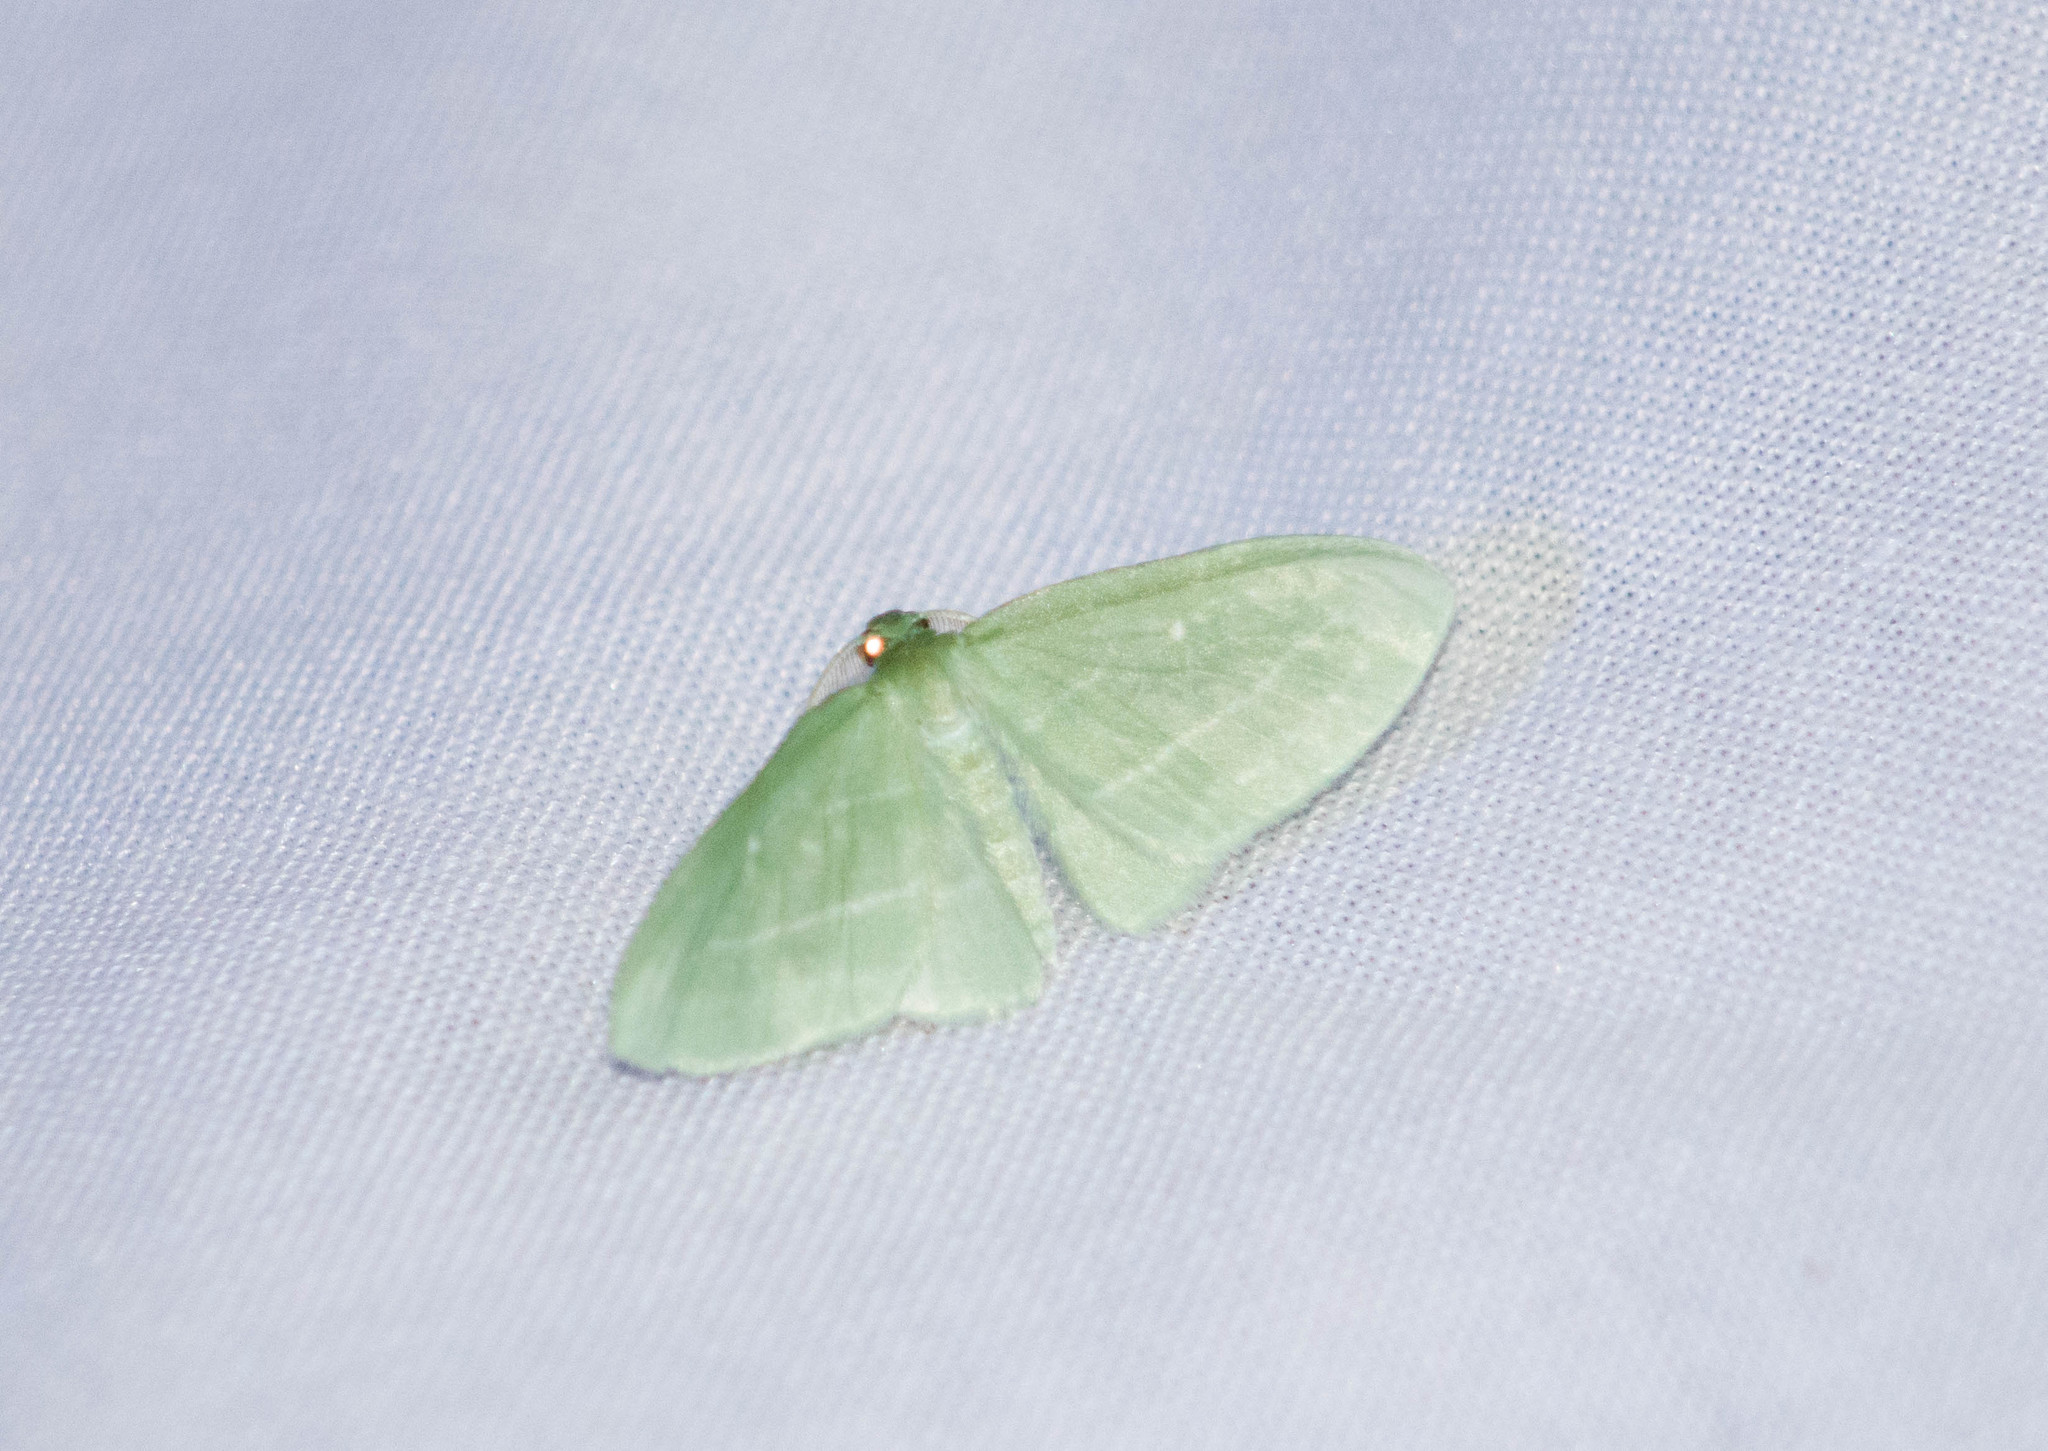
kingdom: Animalia
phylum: Arthropoda
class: Insecta
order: Lepidoptera
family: Geometridae
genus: Dyspteris
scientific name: Dyspteris abortivaria
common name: Bad-wing
